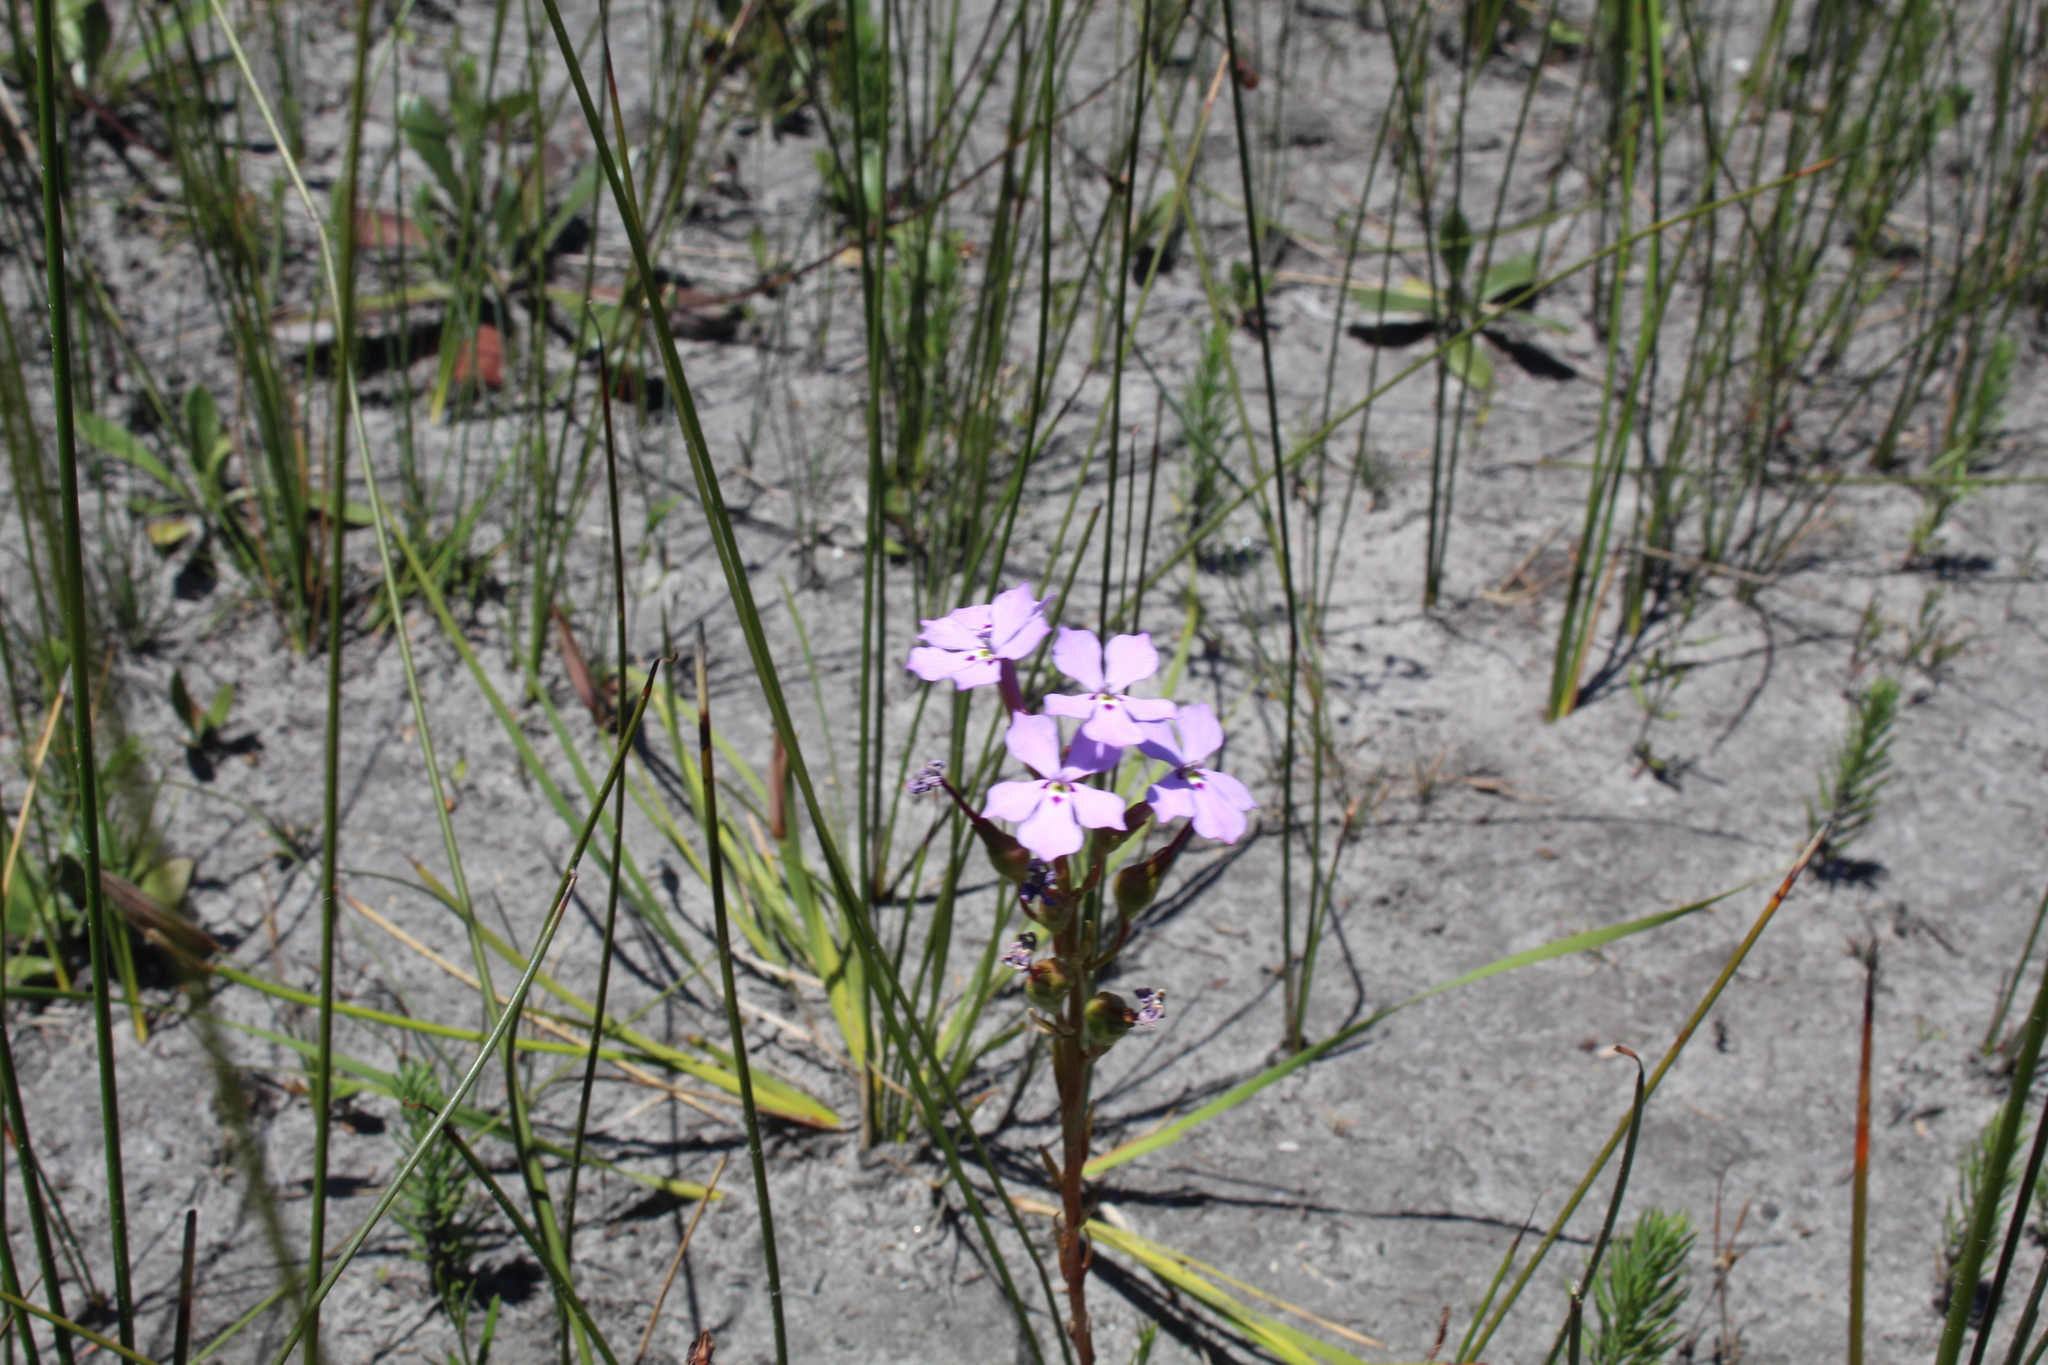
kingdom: Plantae
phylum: Tracheophyta
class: Magnoliopsida
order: Asterales
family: Campanulaceae
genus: Isotoma
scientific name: Isotoma hypocrateriformis
